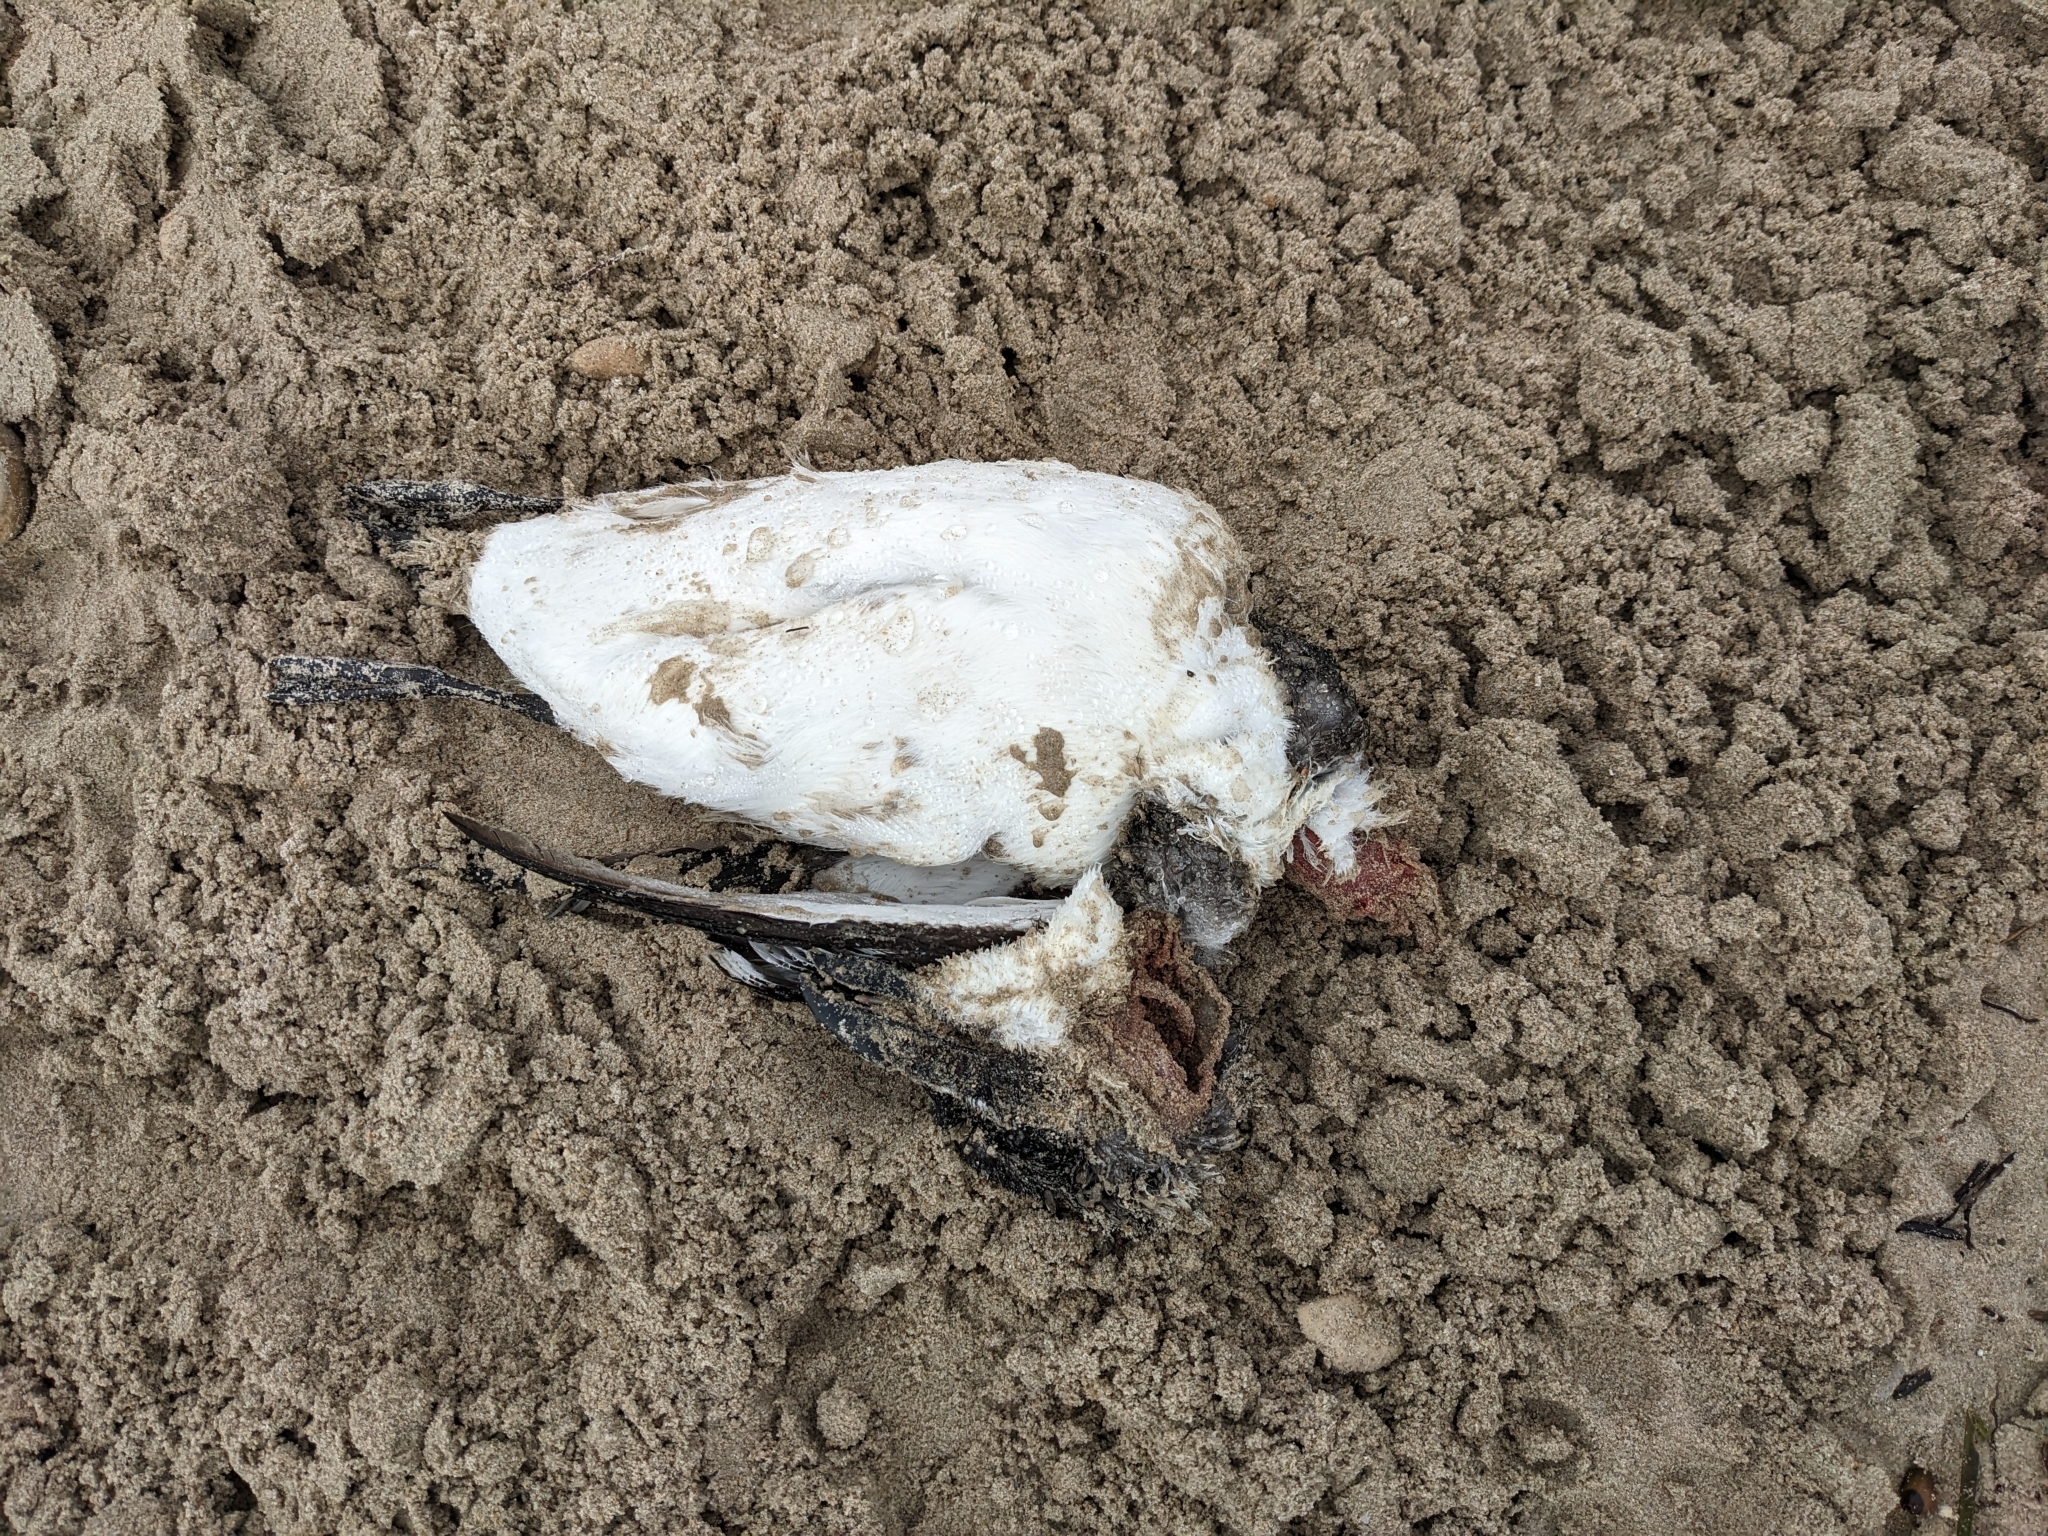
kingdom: Animalia
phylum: Chordata
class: Aves
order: Charadriiformes
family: Alcidae
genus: Alca
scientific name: Alca torda
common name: Razorbill
